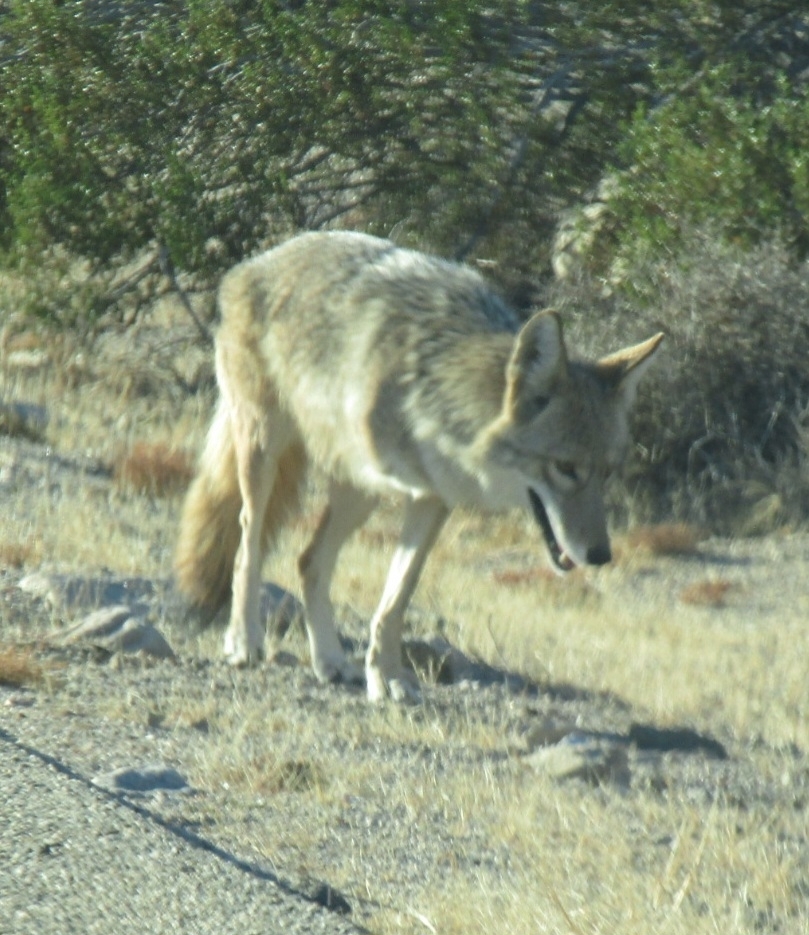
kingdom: Animalia
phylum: Chordata
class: Mammalia
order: Carnivora
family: Canidae
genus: Canis
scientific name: Canis latrans
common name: Coyote
